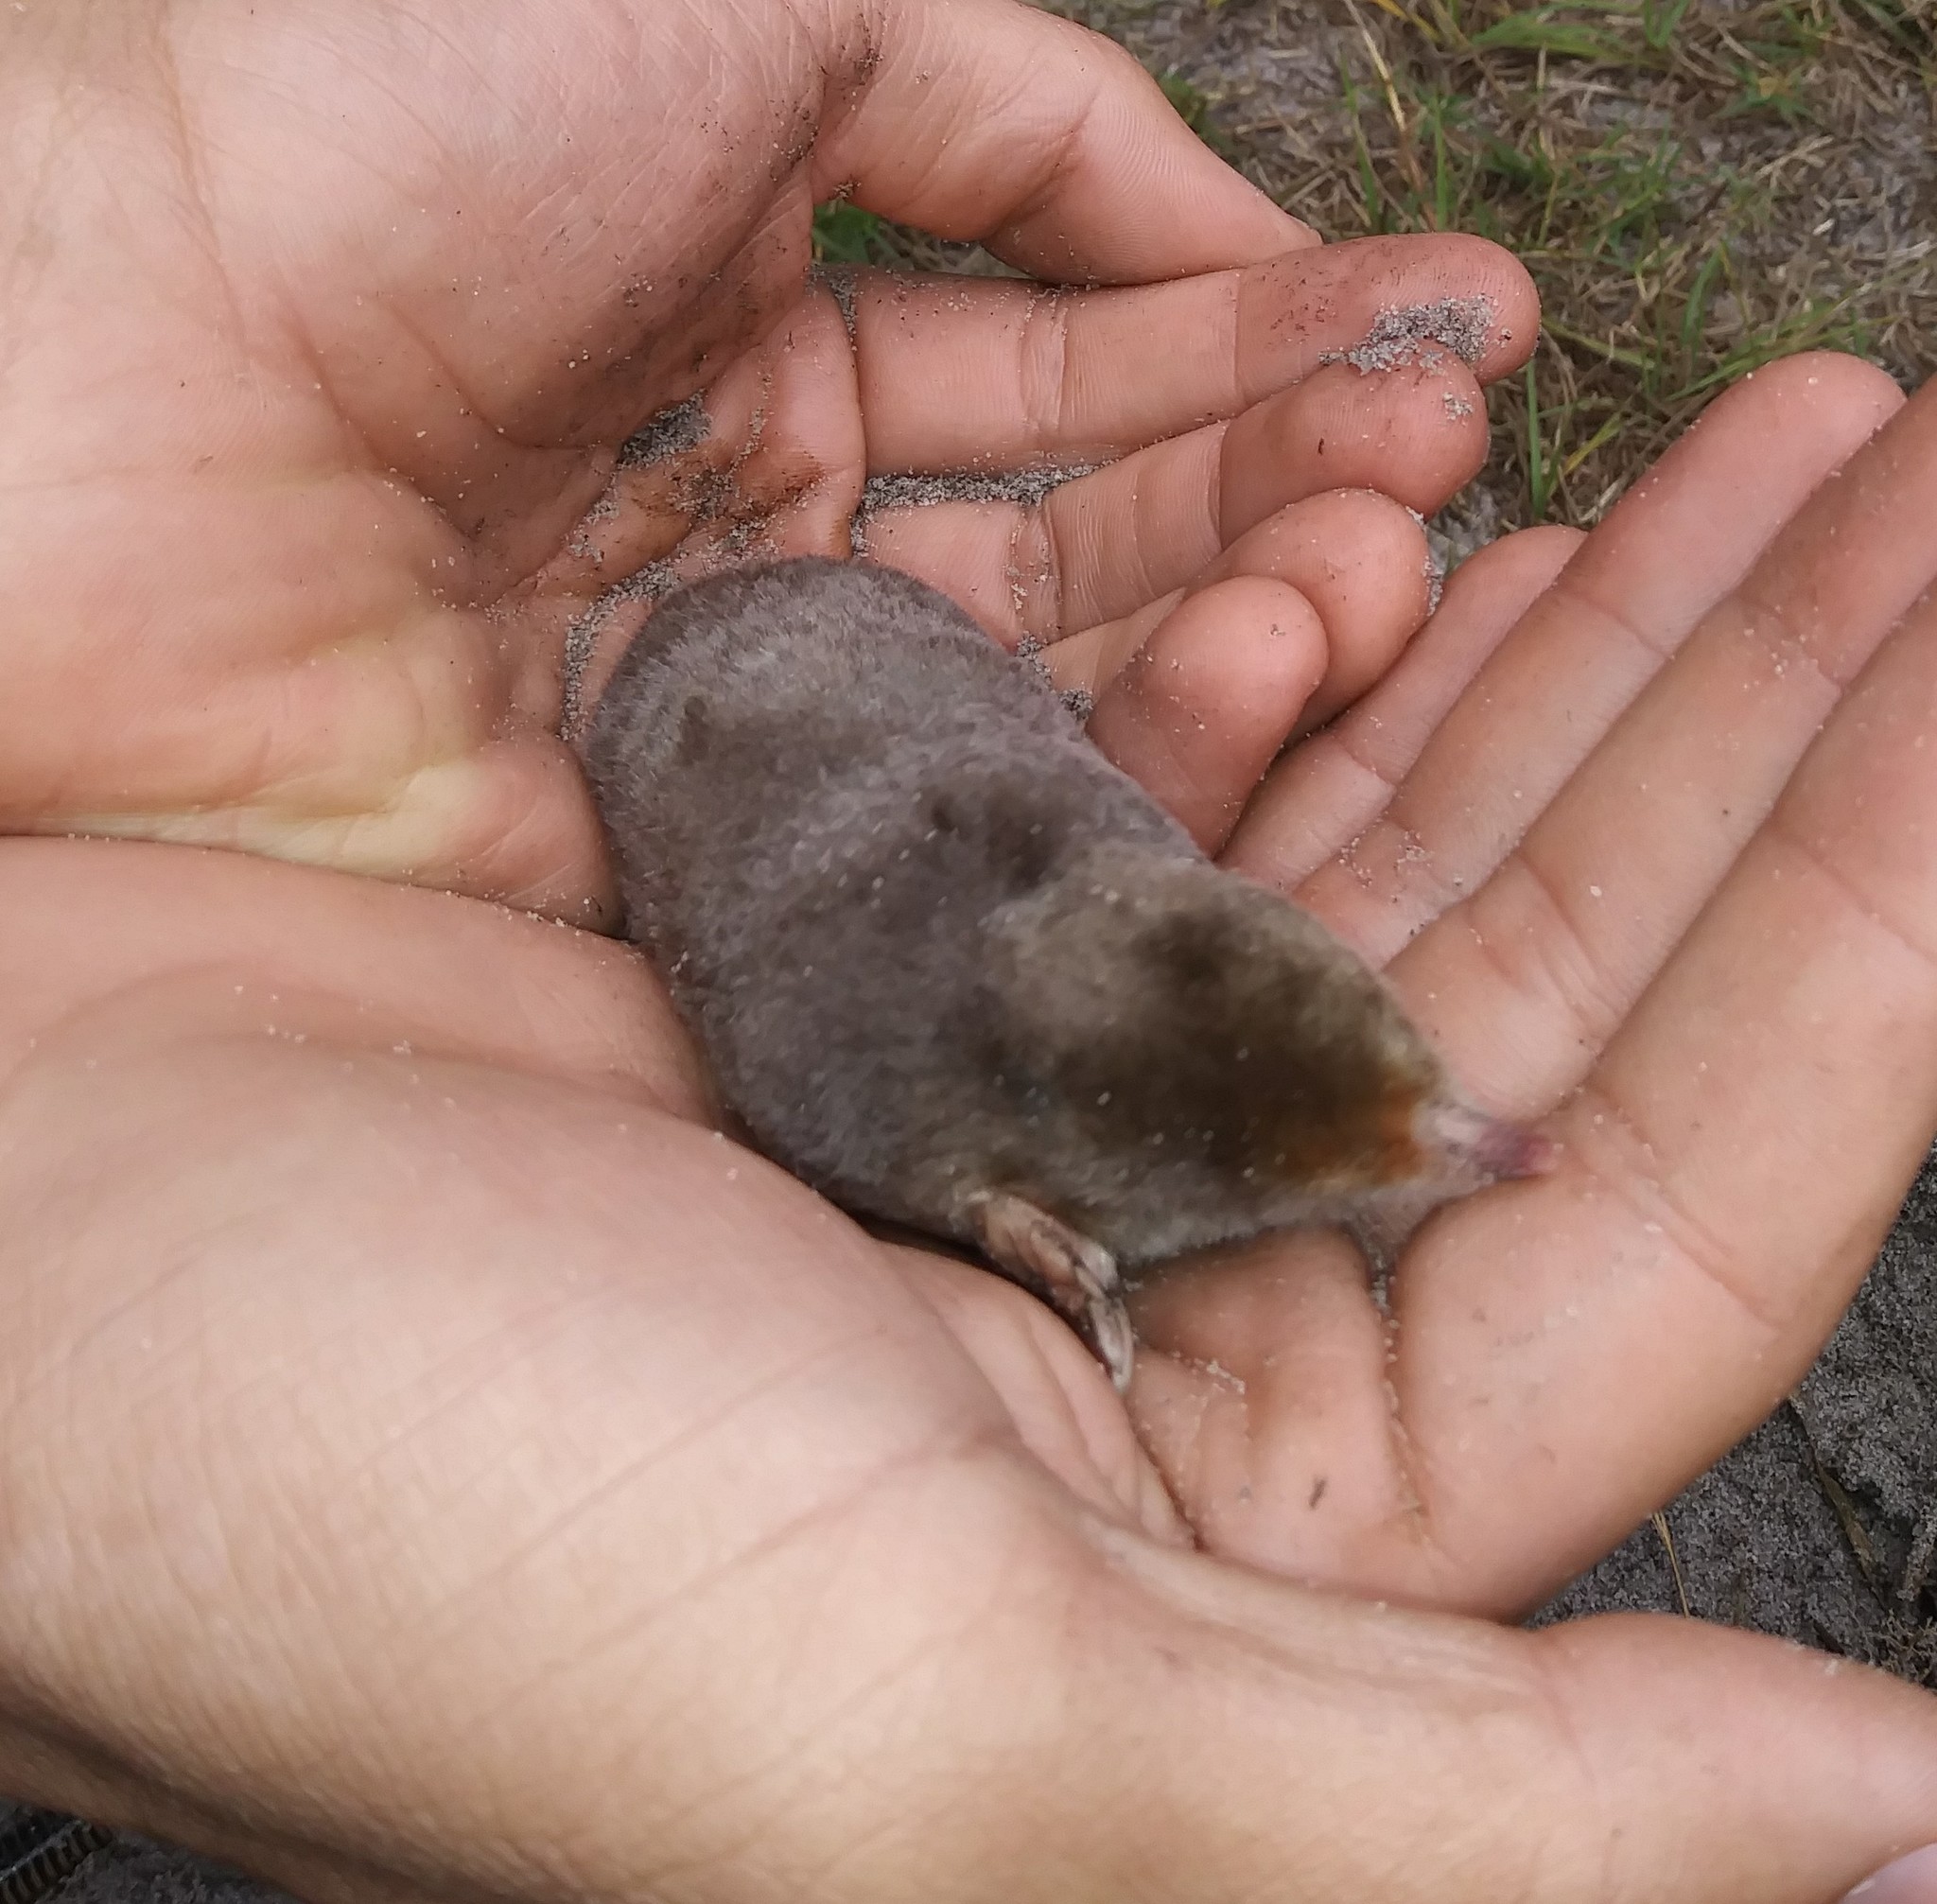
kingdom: Animalia
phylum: Chordata
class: Mammalia
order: Soricomorpha
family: Talpidae
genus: Scalopus
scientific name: Scalopus aquaticus
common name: Eastern mole
